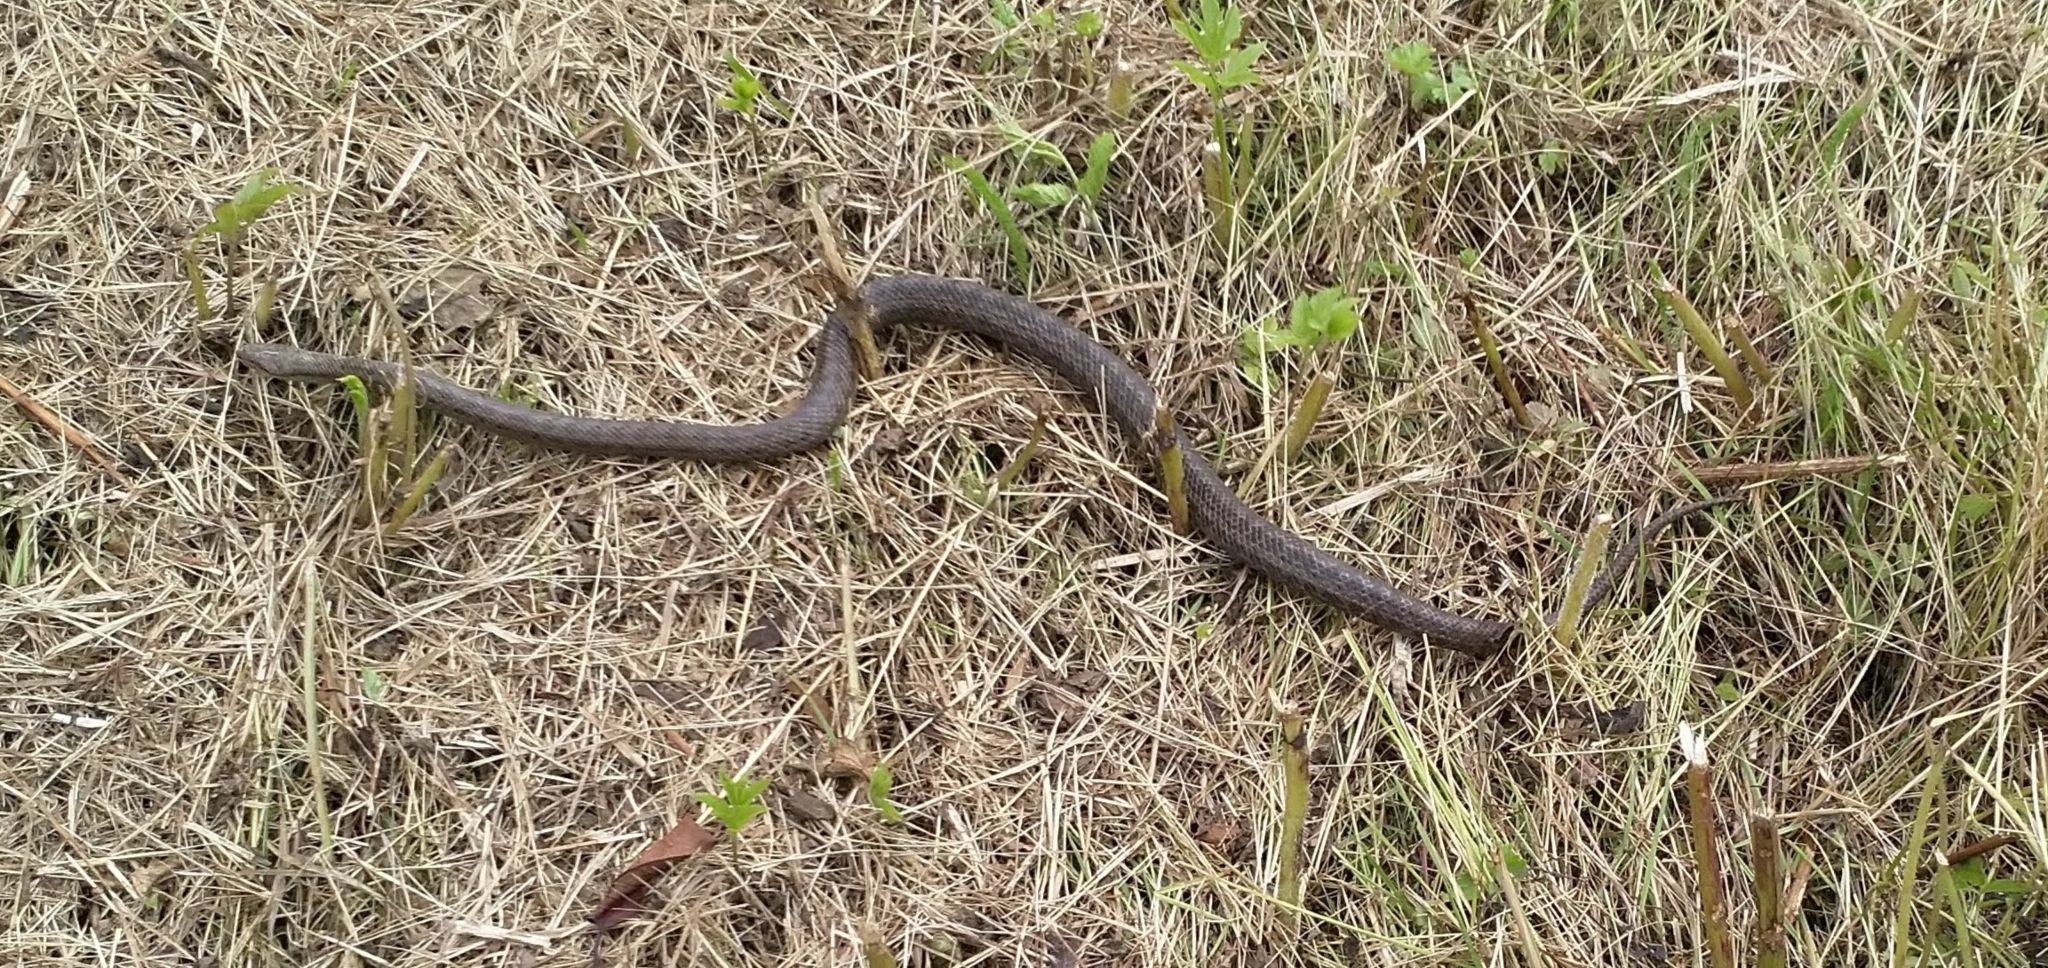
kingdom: Animalia
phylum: Chordata
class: Squamata
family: Colubridae
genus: Coronella
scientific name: Coronella austriaca
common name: Smooth snake
